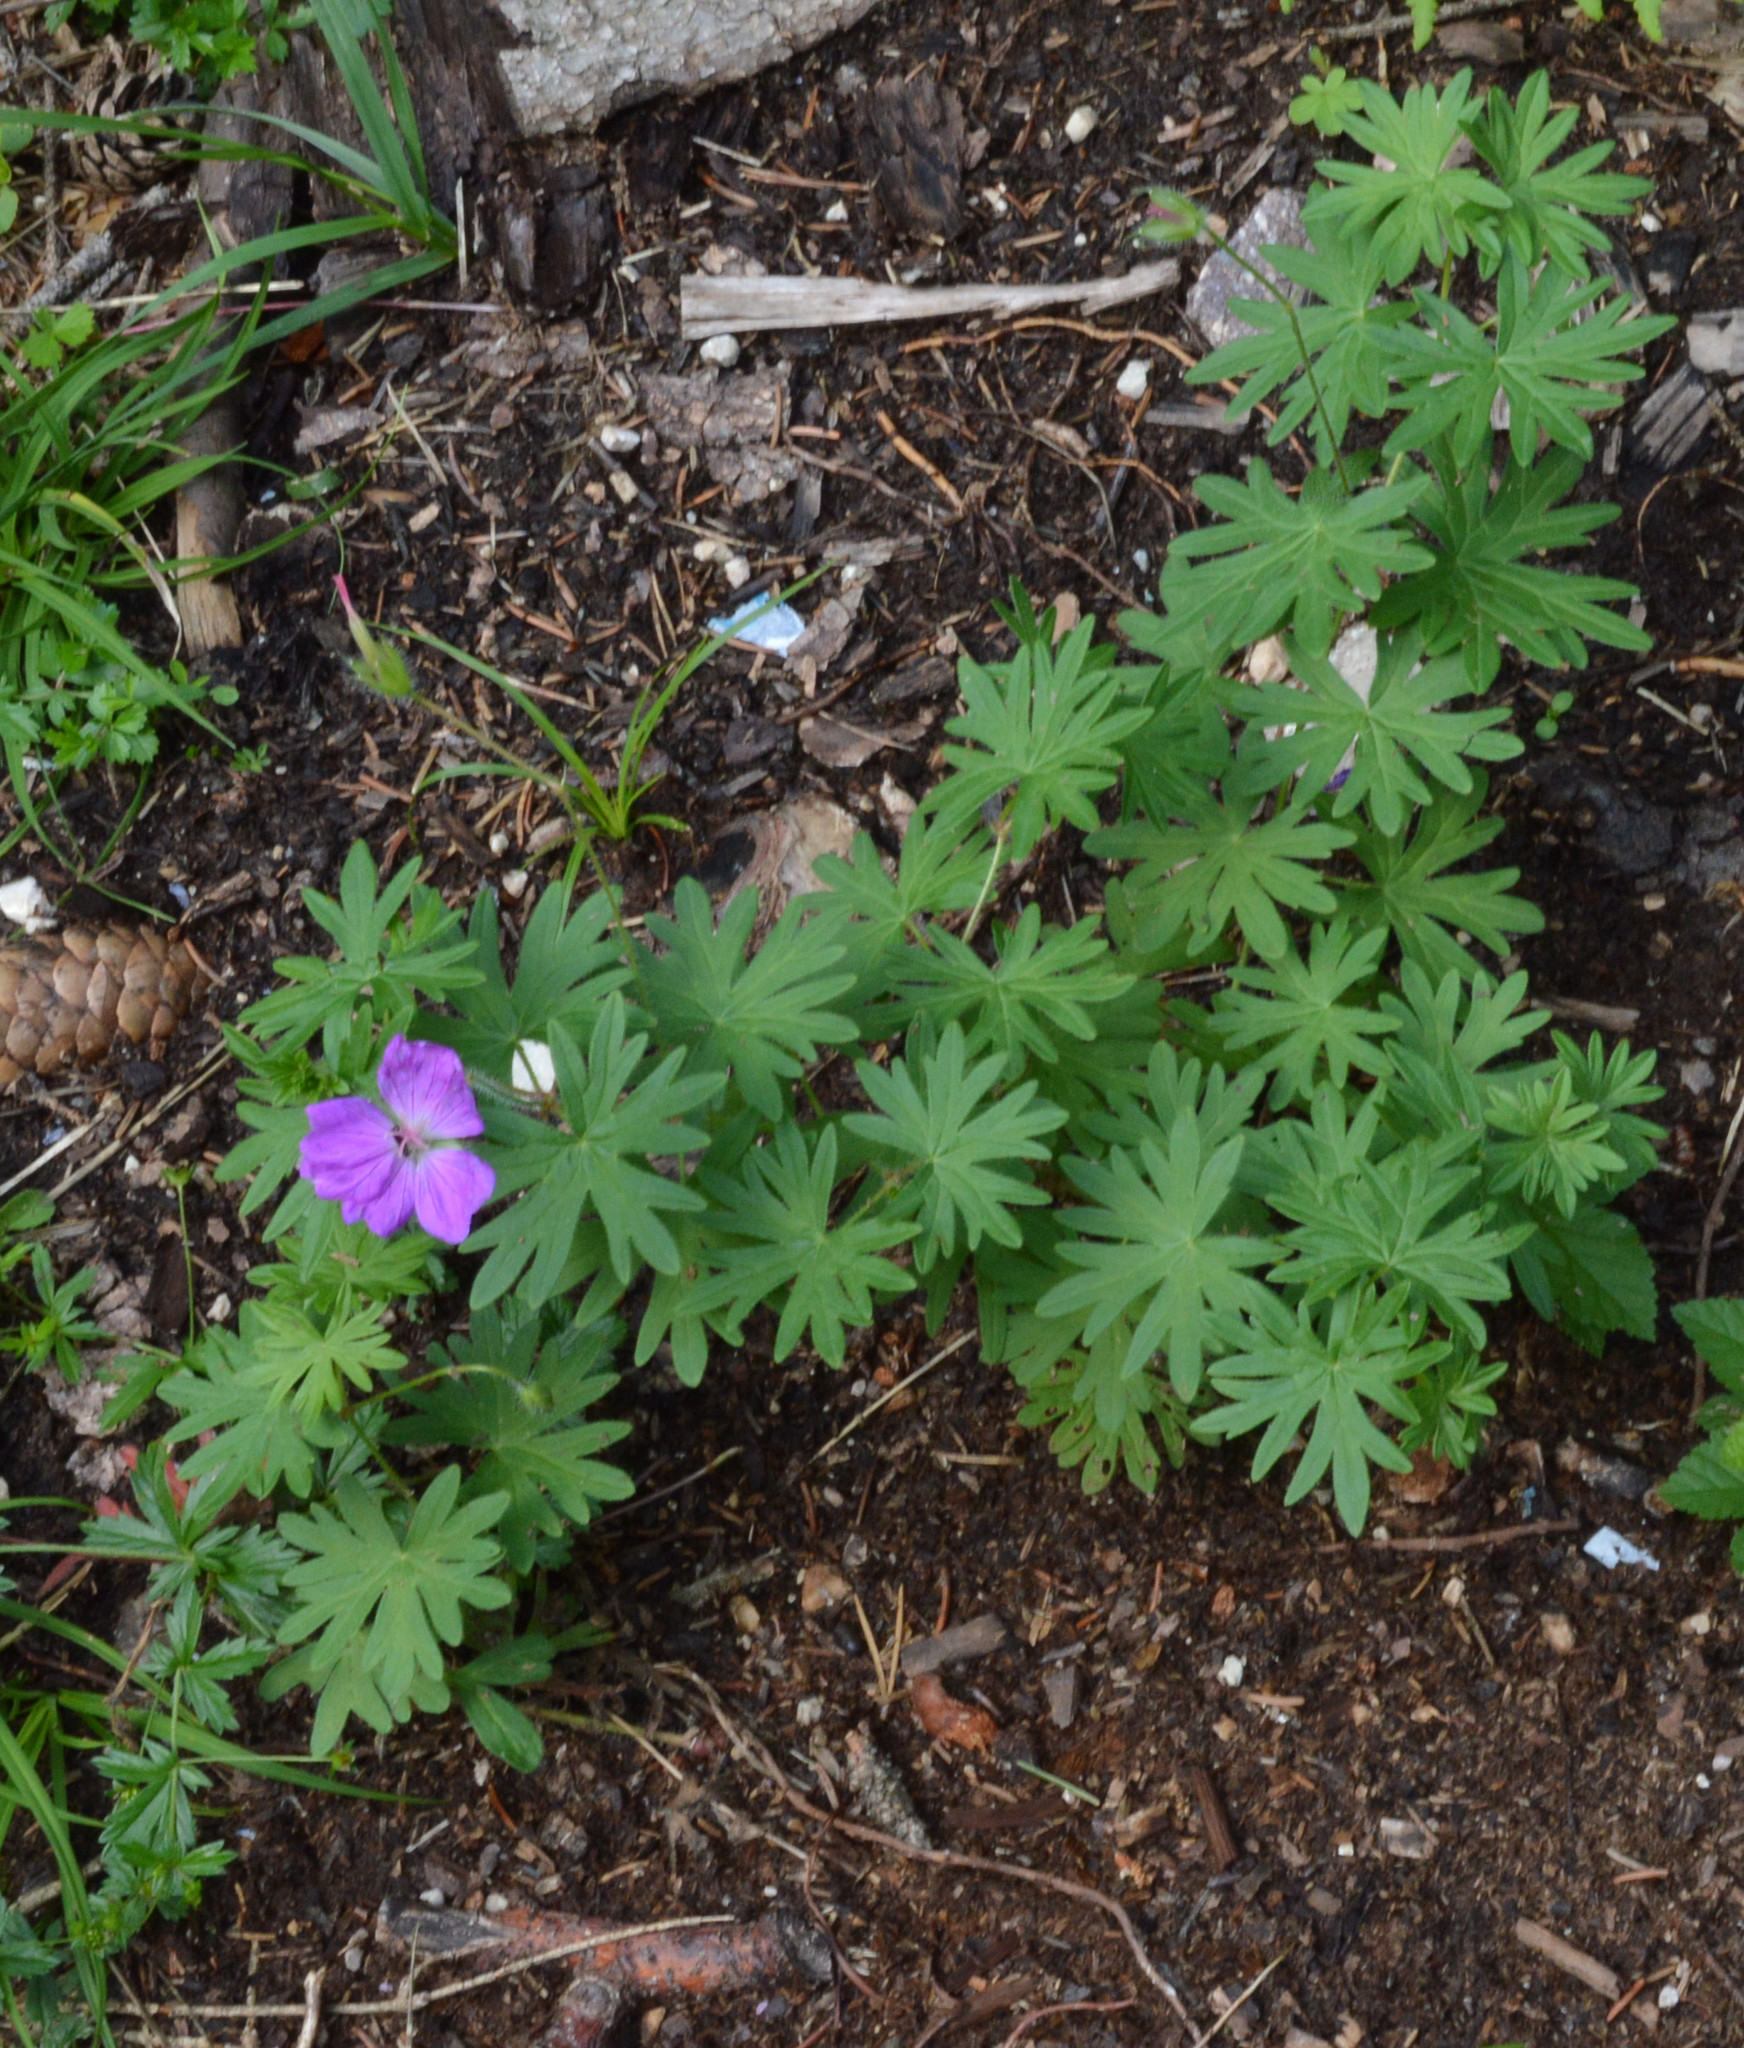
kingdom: Plantae
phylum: Tracheophyta
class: Magnoliopsida
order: Geraniales
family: Geraniaceae
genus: Geranium
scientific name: Geranium sanguineum
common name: Bloody crane's-bill
